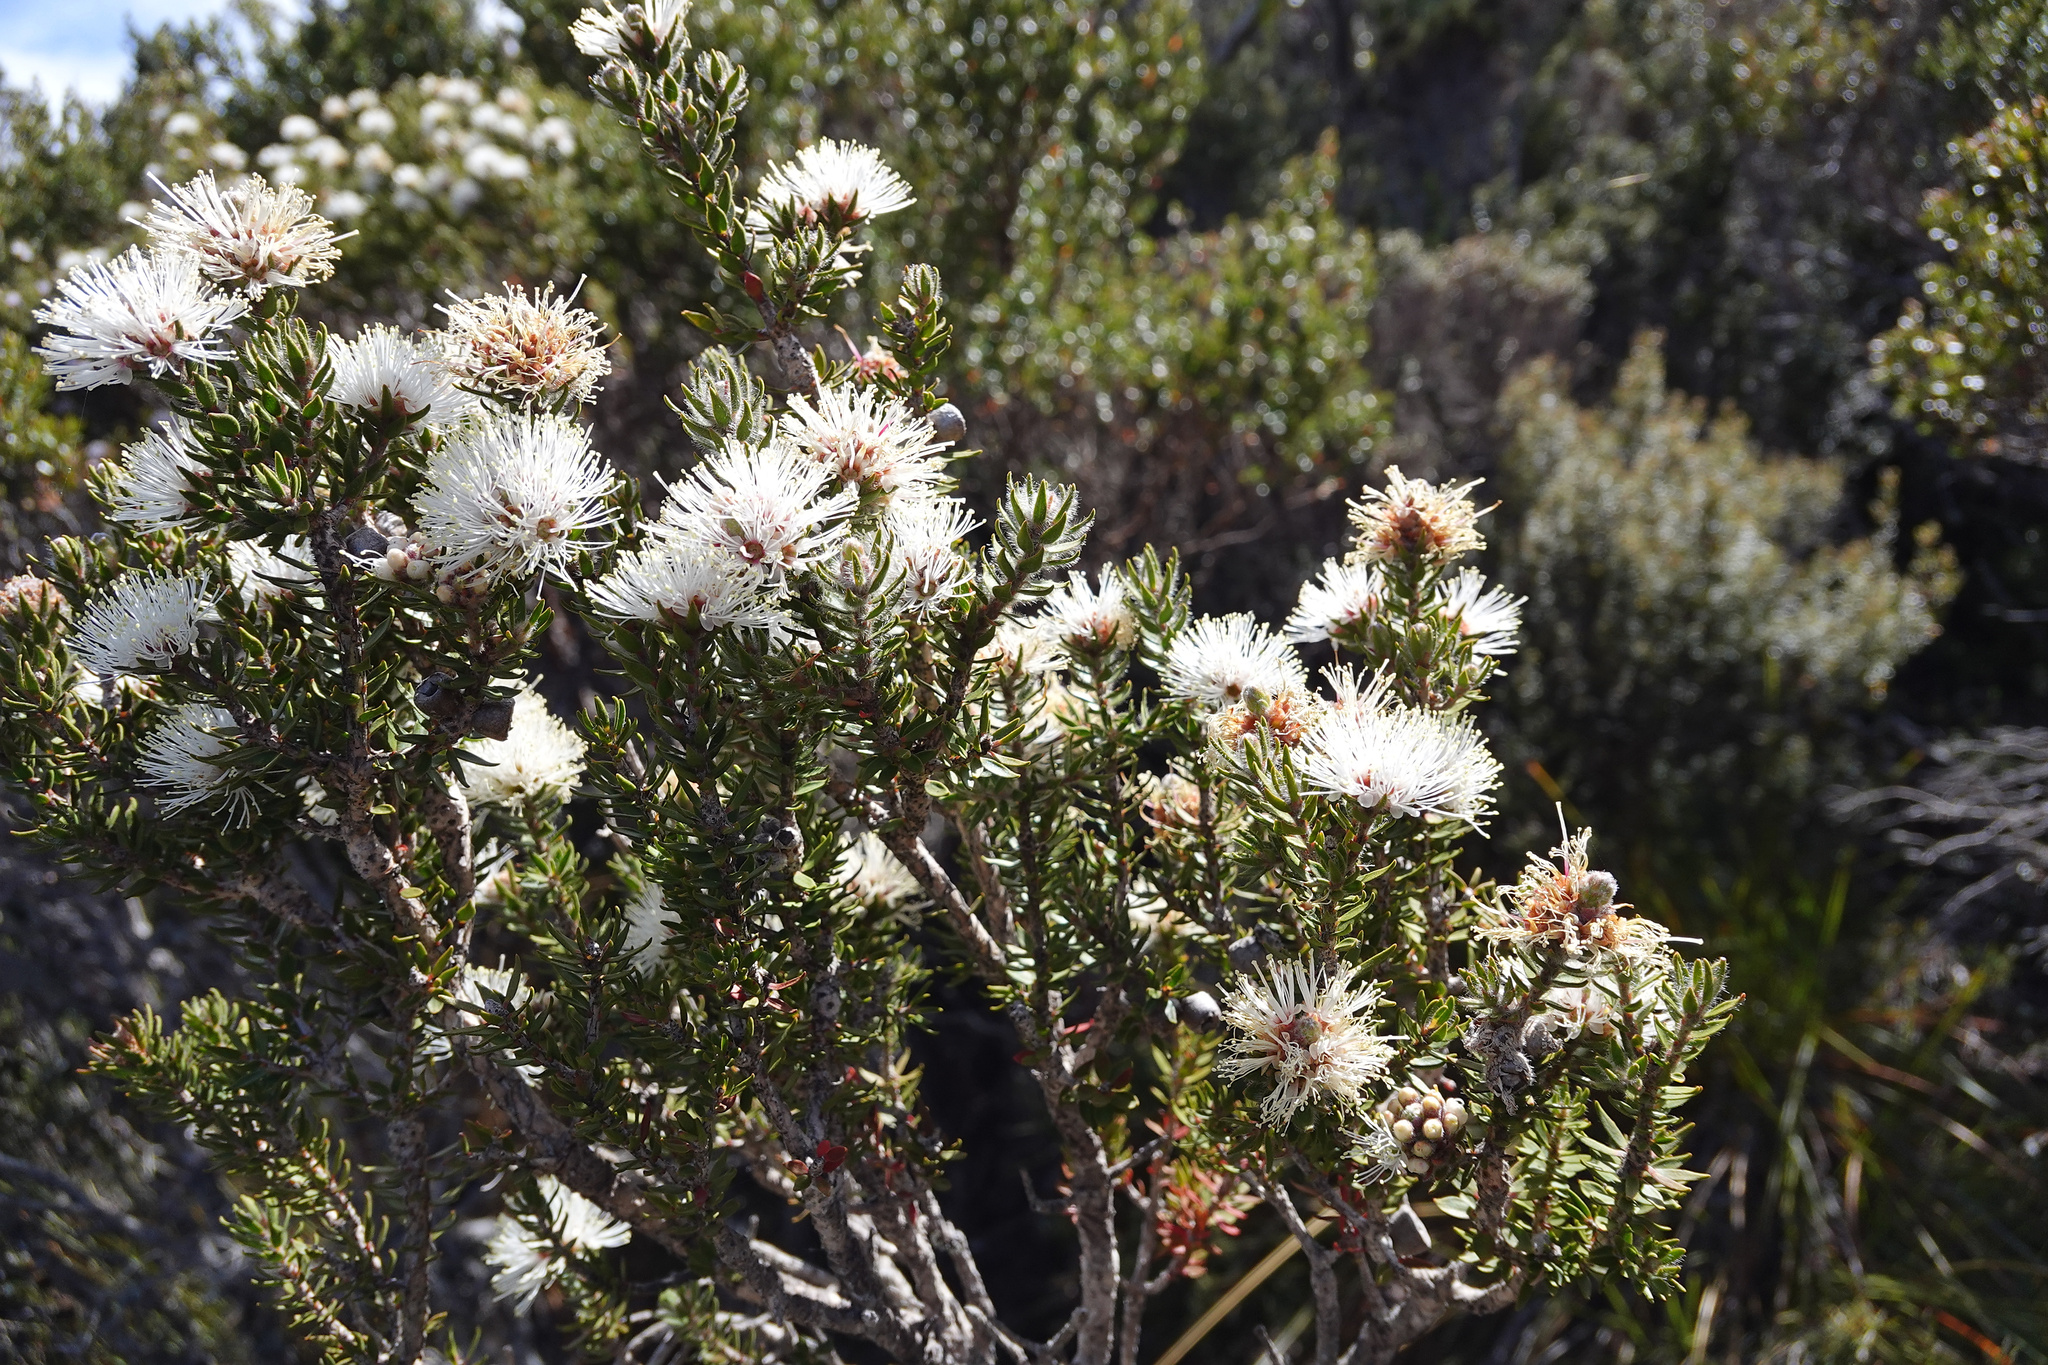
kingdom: Plantae
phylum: Tracheophyta
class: Magnoliopsida
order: Myrtales
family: Myrtaceae
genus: Melaleuca
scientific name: Melaleuca squamea
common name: Swamp melaleuca
